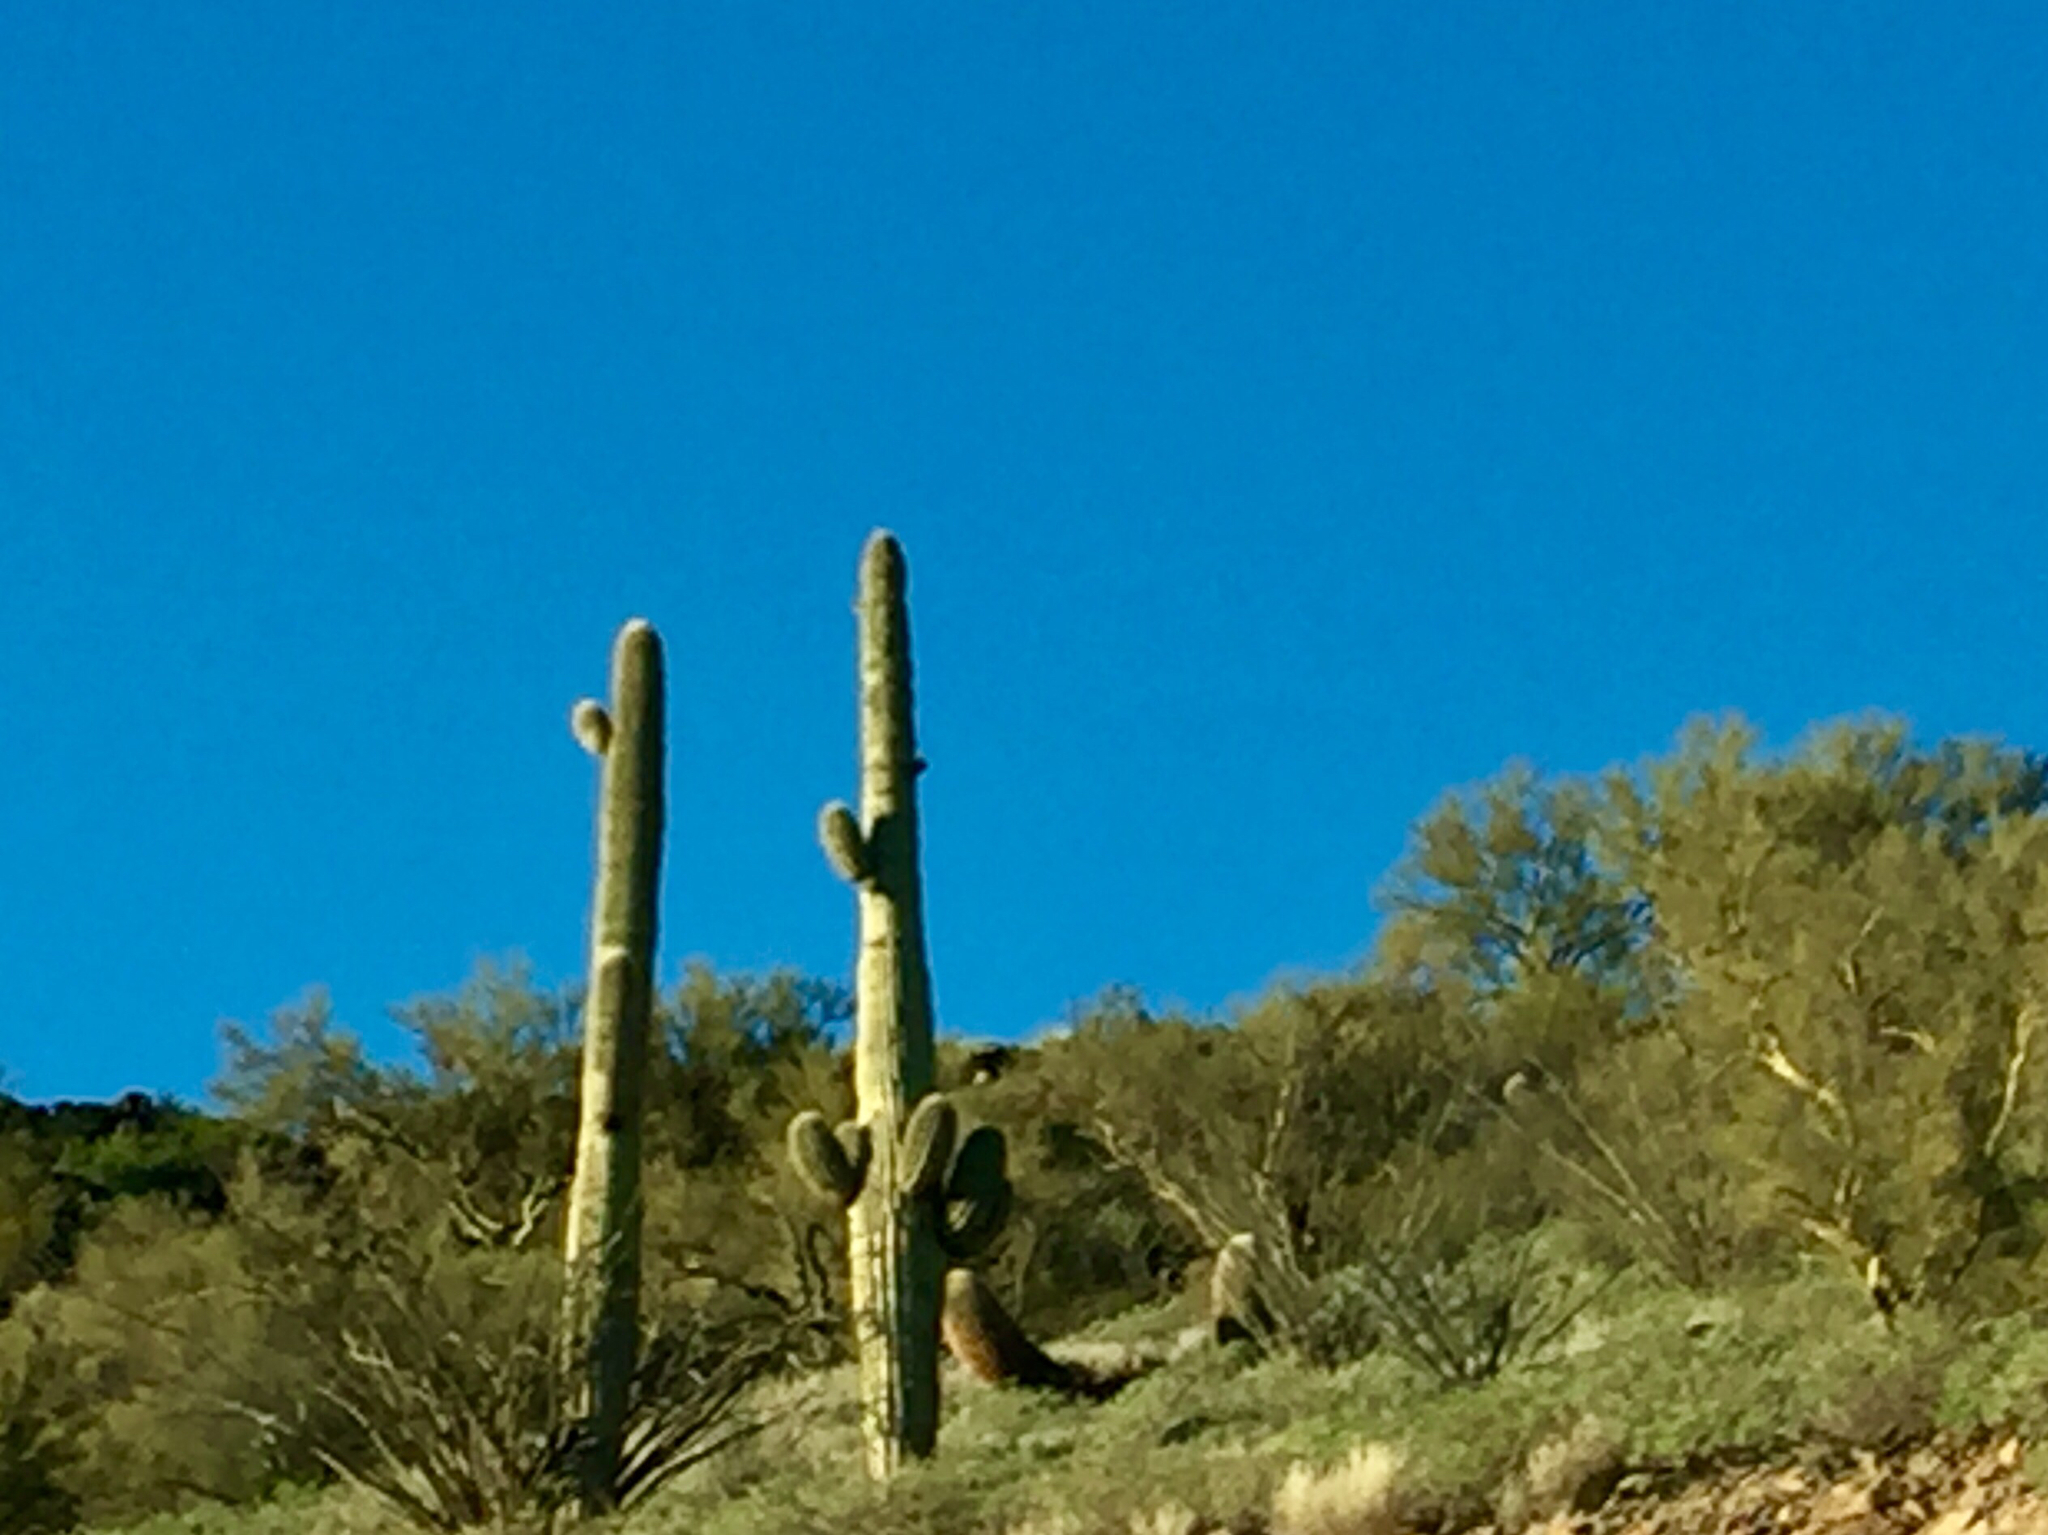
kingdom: Plantae
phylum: Tracheophyta
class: Magnoliopsida
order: Caryophyllales
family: Cactaceae
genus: Carnegiea
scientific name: Carnegiea gigantea
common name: Saguaro
